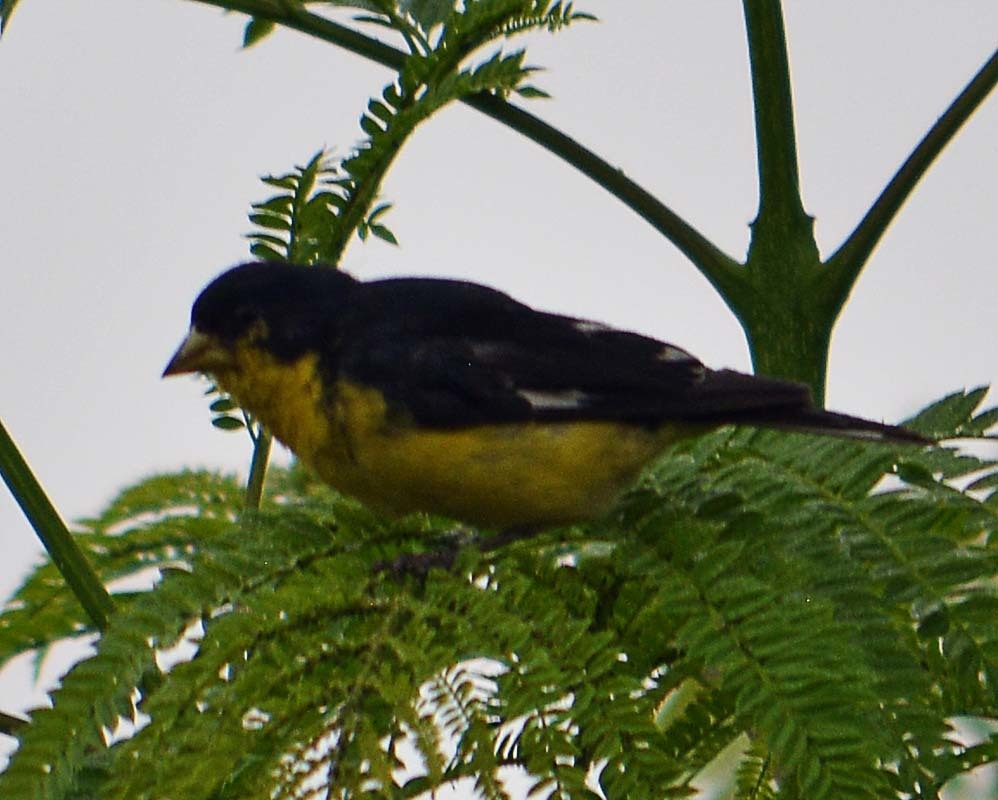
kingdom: Animalia
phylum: Chordata
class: Aves
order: Passeriformes
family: Fringillidae
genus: Spinus
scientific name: Spinus psaltria
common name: Lesser goldfinch
